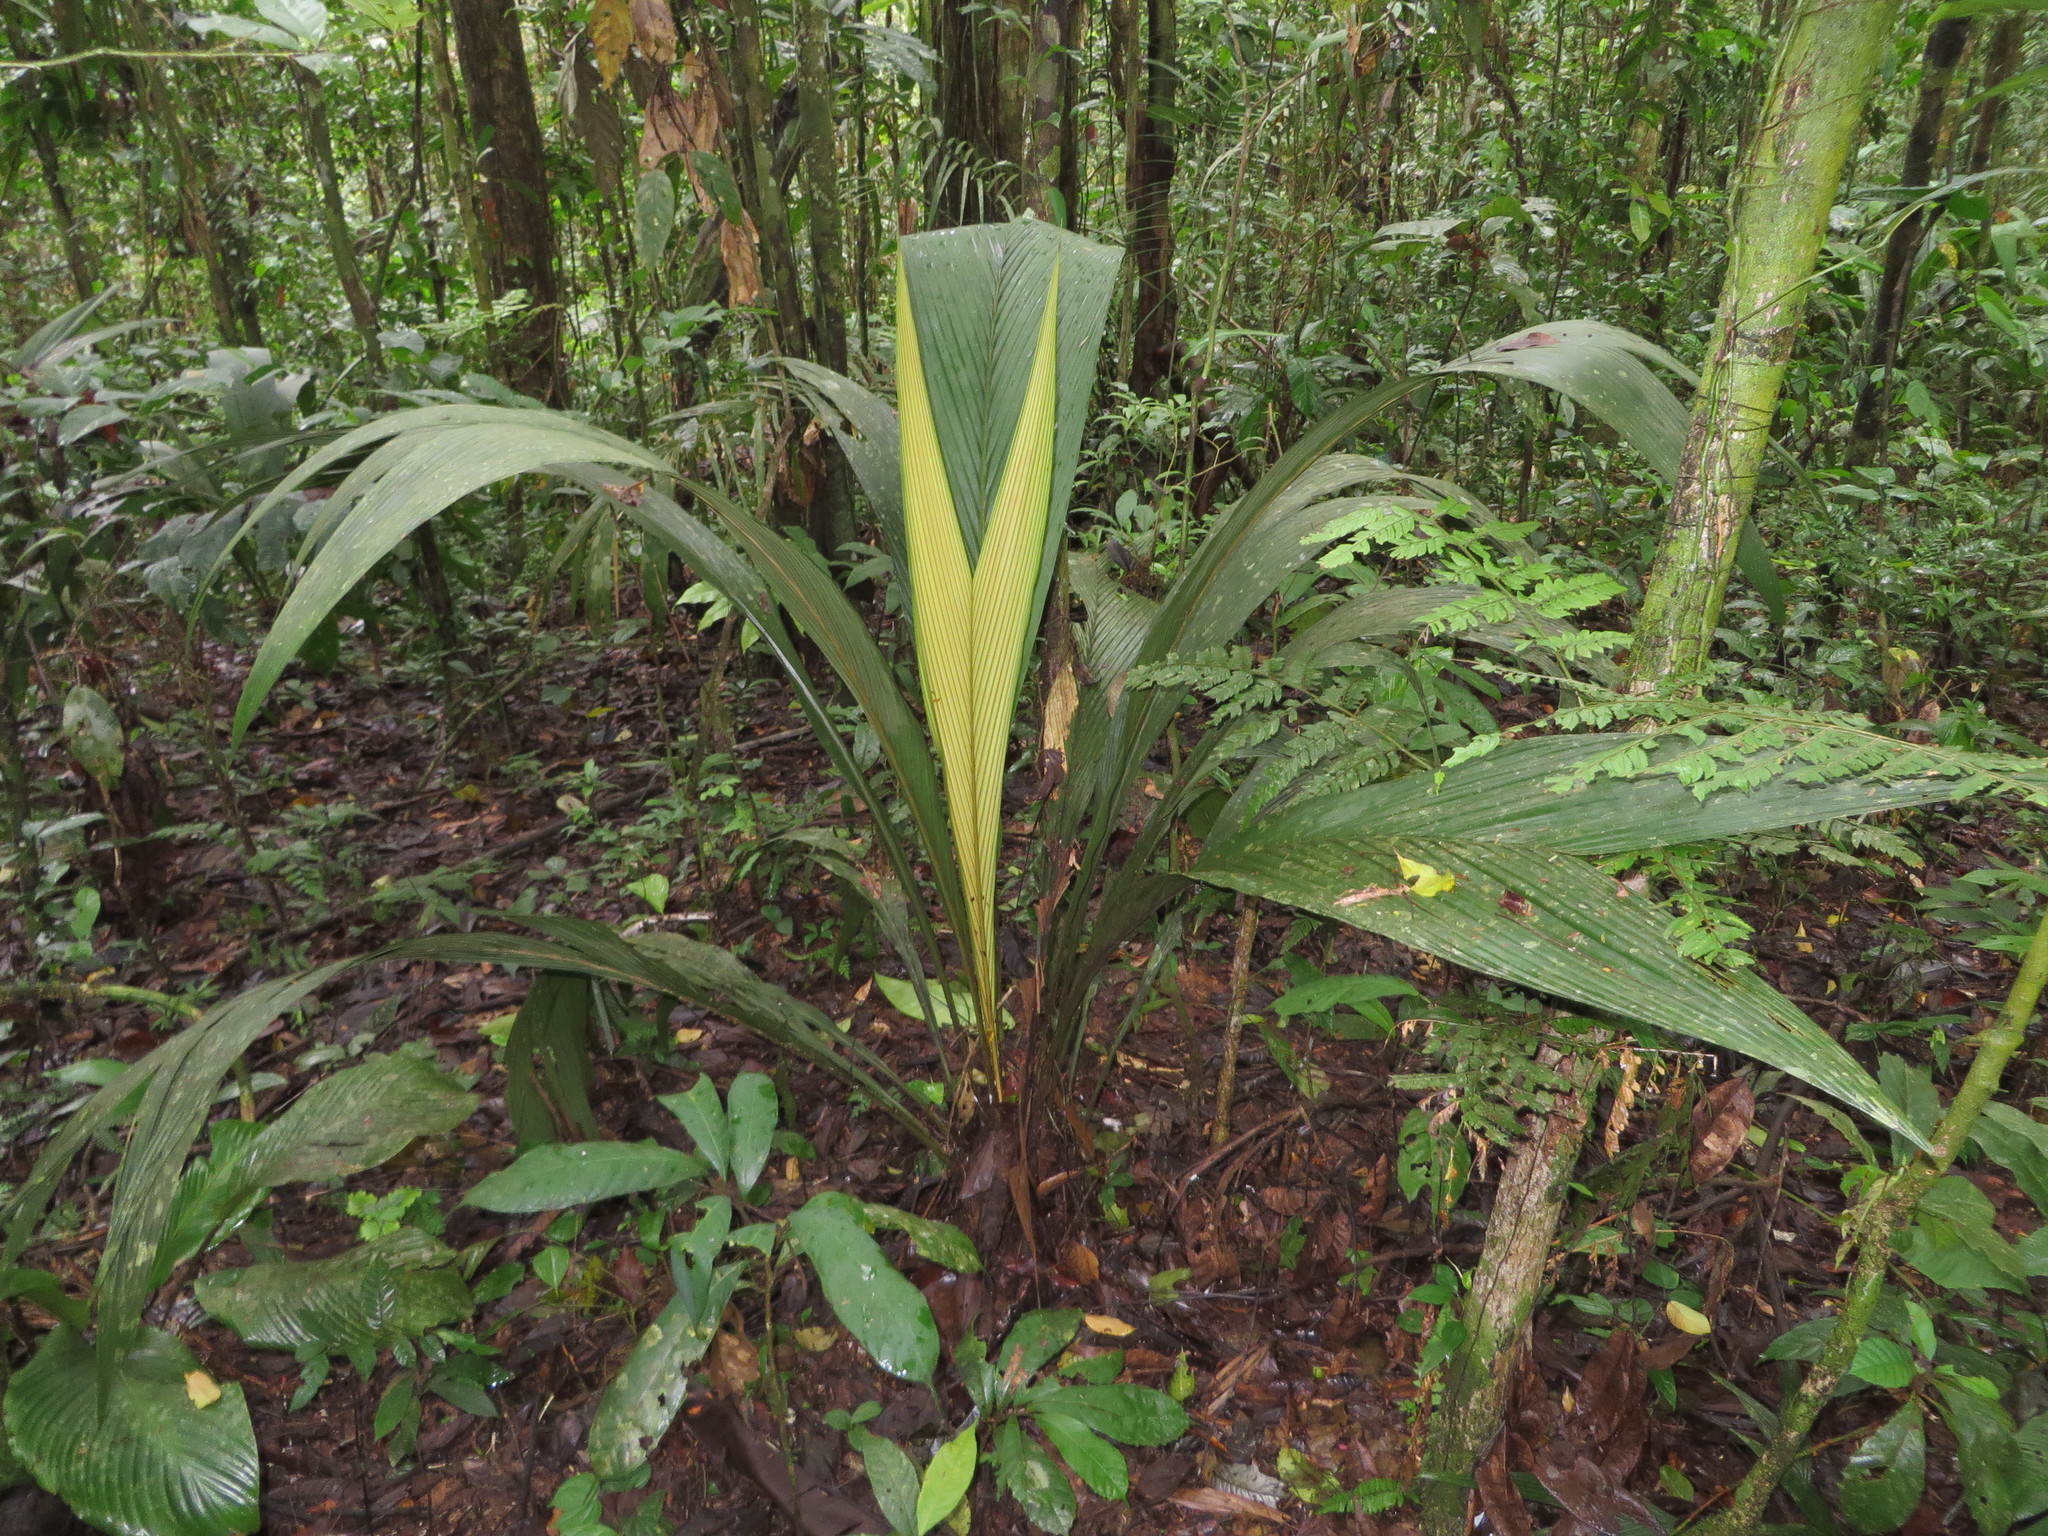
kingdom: Plantae
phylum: Tracheophyta
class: Liliopsida
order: Arecales
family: Arecaceae
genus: Geonoma
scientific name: Geonoma macrostachys
